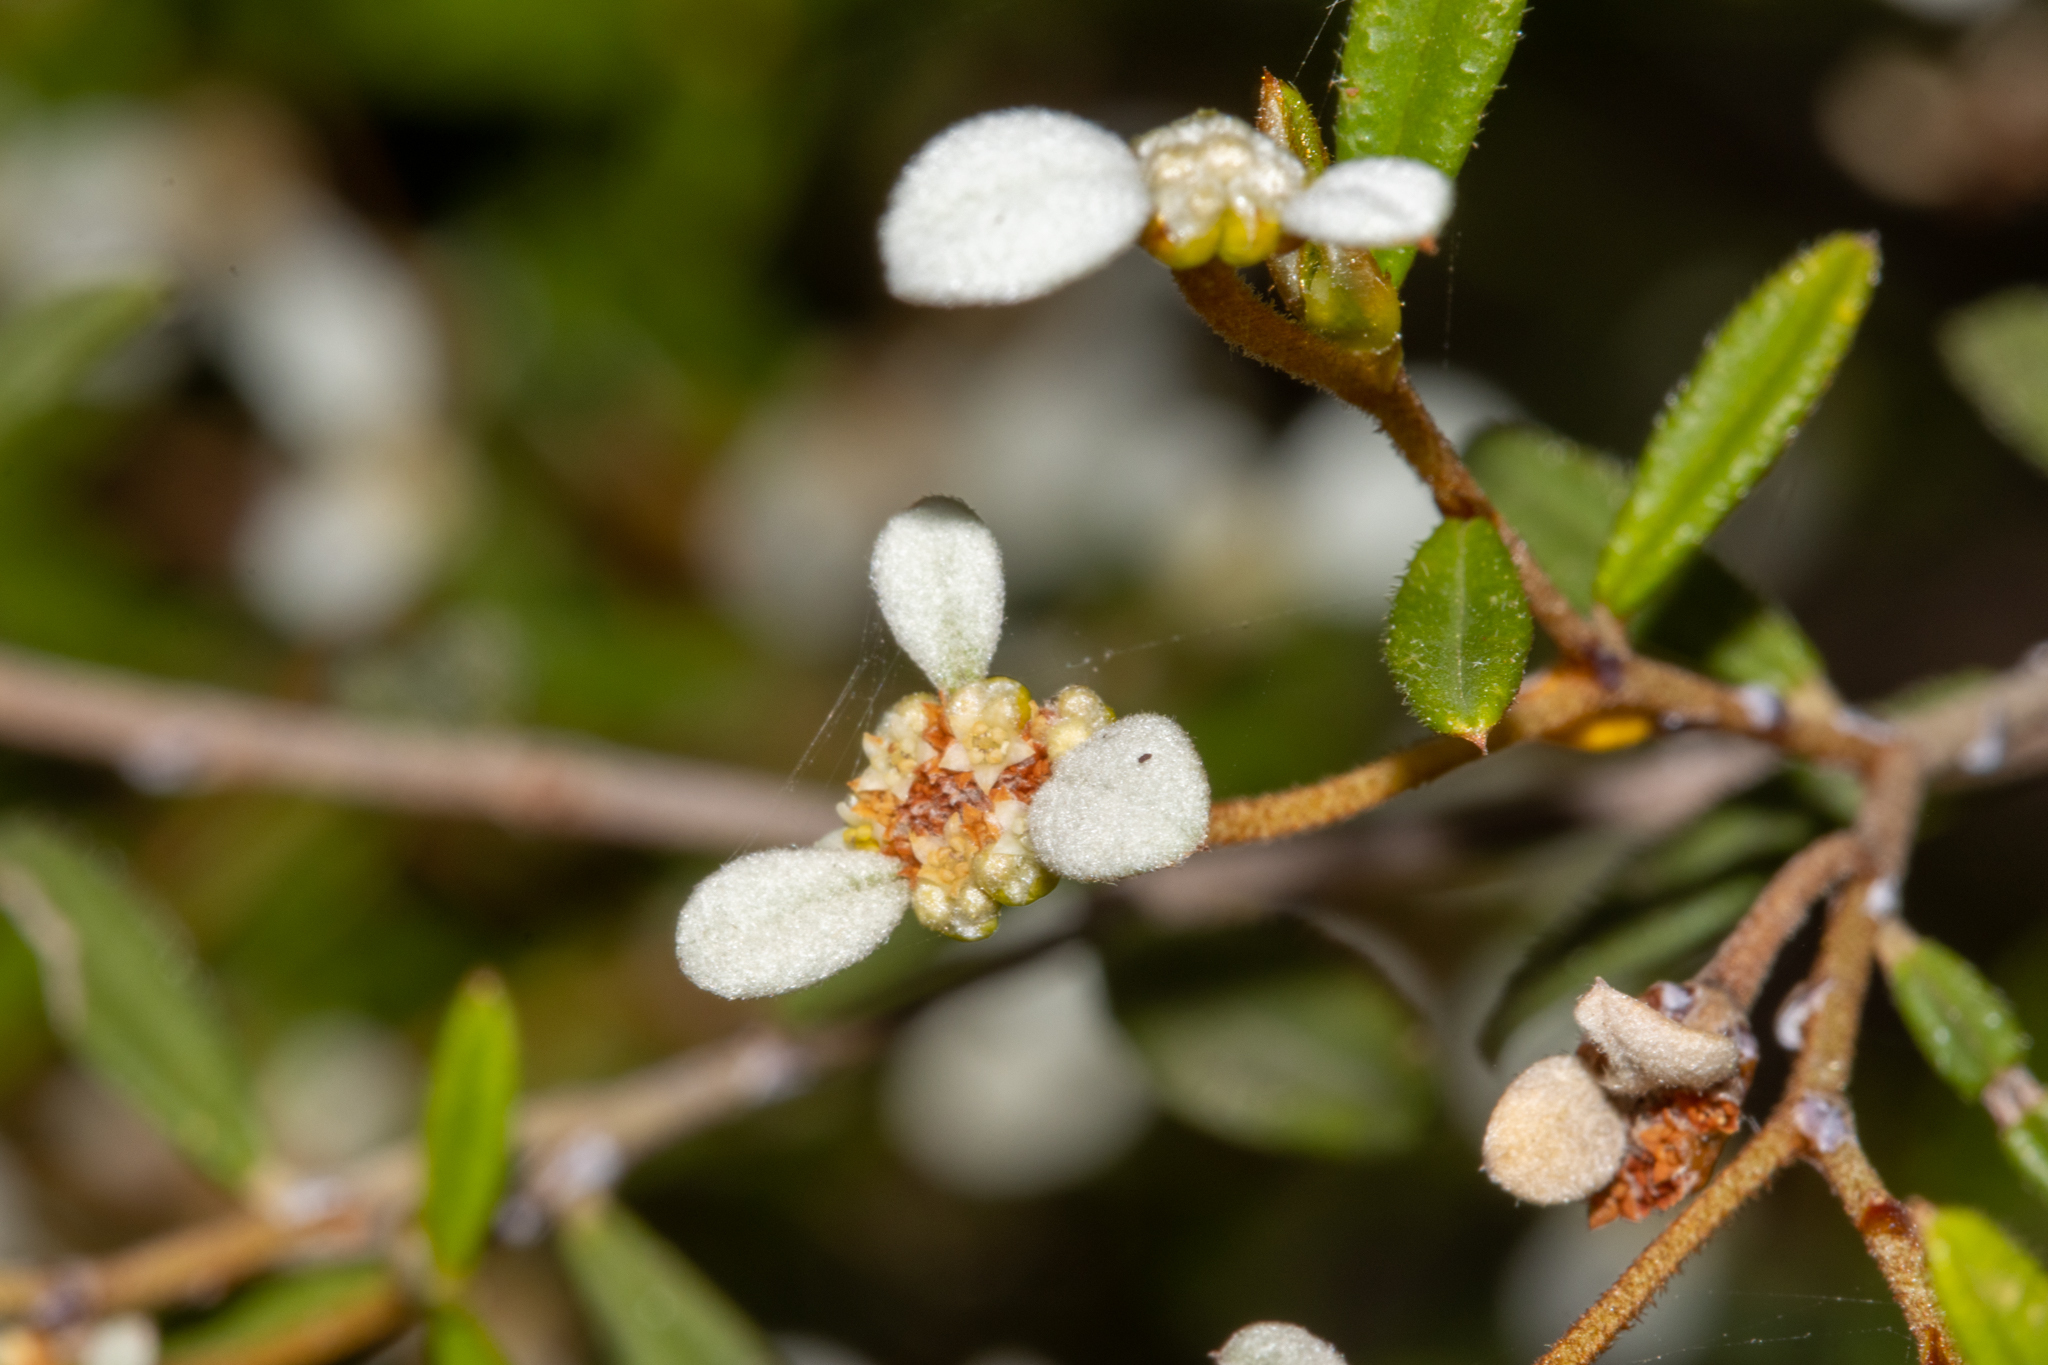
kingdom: Plantae
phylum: Tracheophyta
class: Magnoliopsida
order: Rosales
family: Rhamnaceae
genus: Spyridium
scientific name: Spyridium vexilliferum
